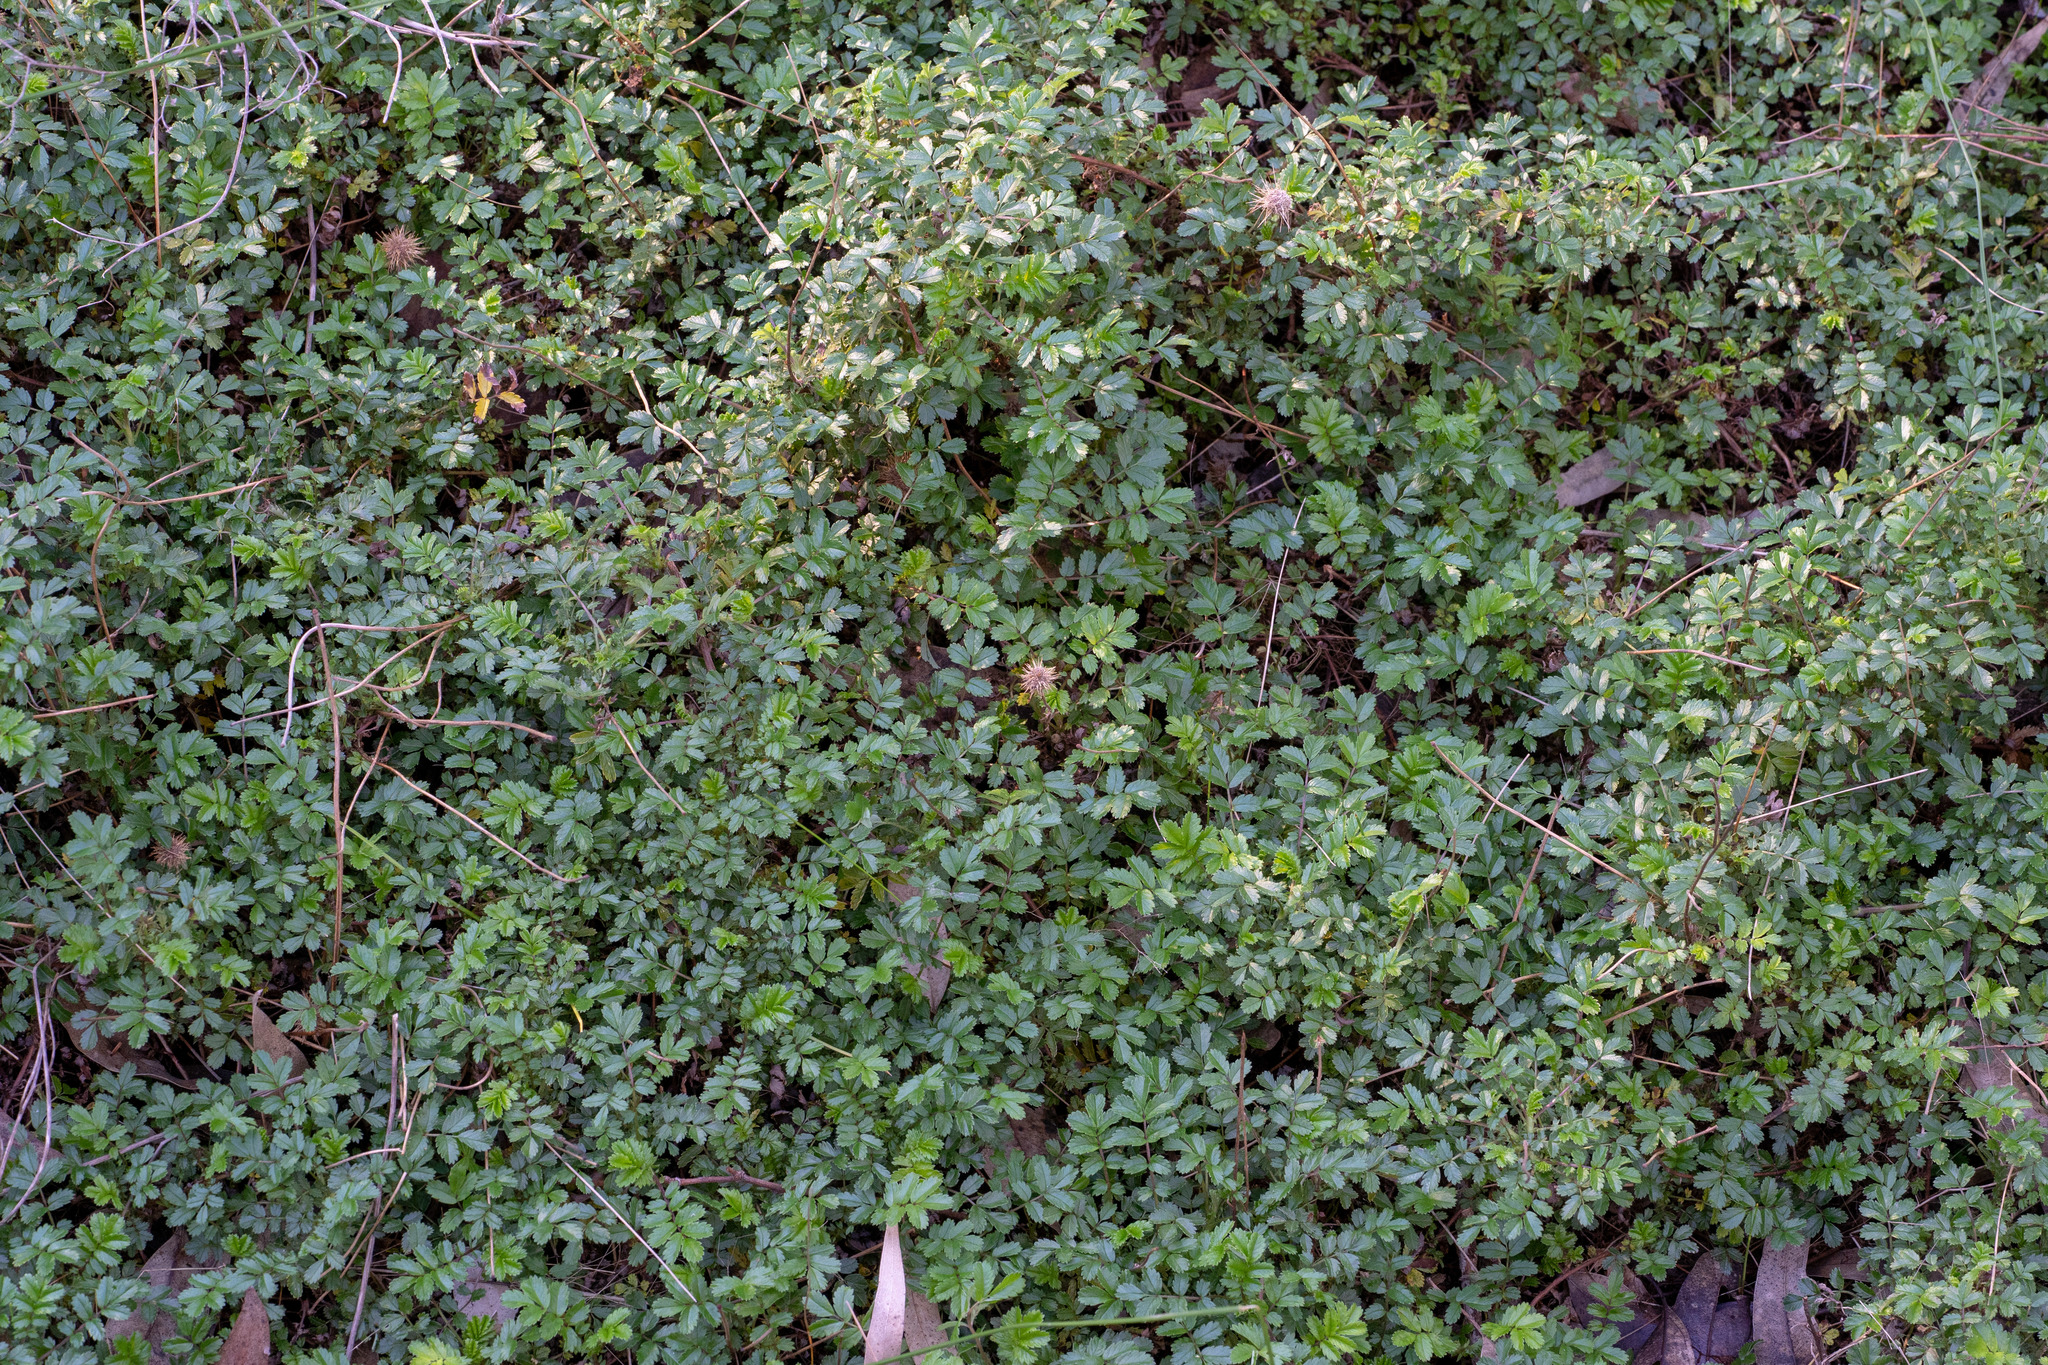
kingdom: Plantae
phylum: Tracheophyta
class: Magnoliopsida
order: Rosales
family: Rosaceae
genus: Acaena
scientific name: Acaena novae-zelandiae
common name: Pirri-pirri-bur
